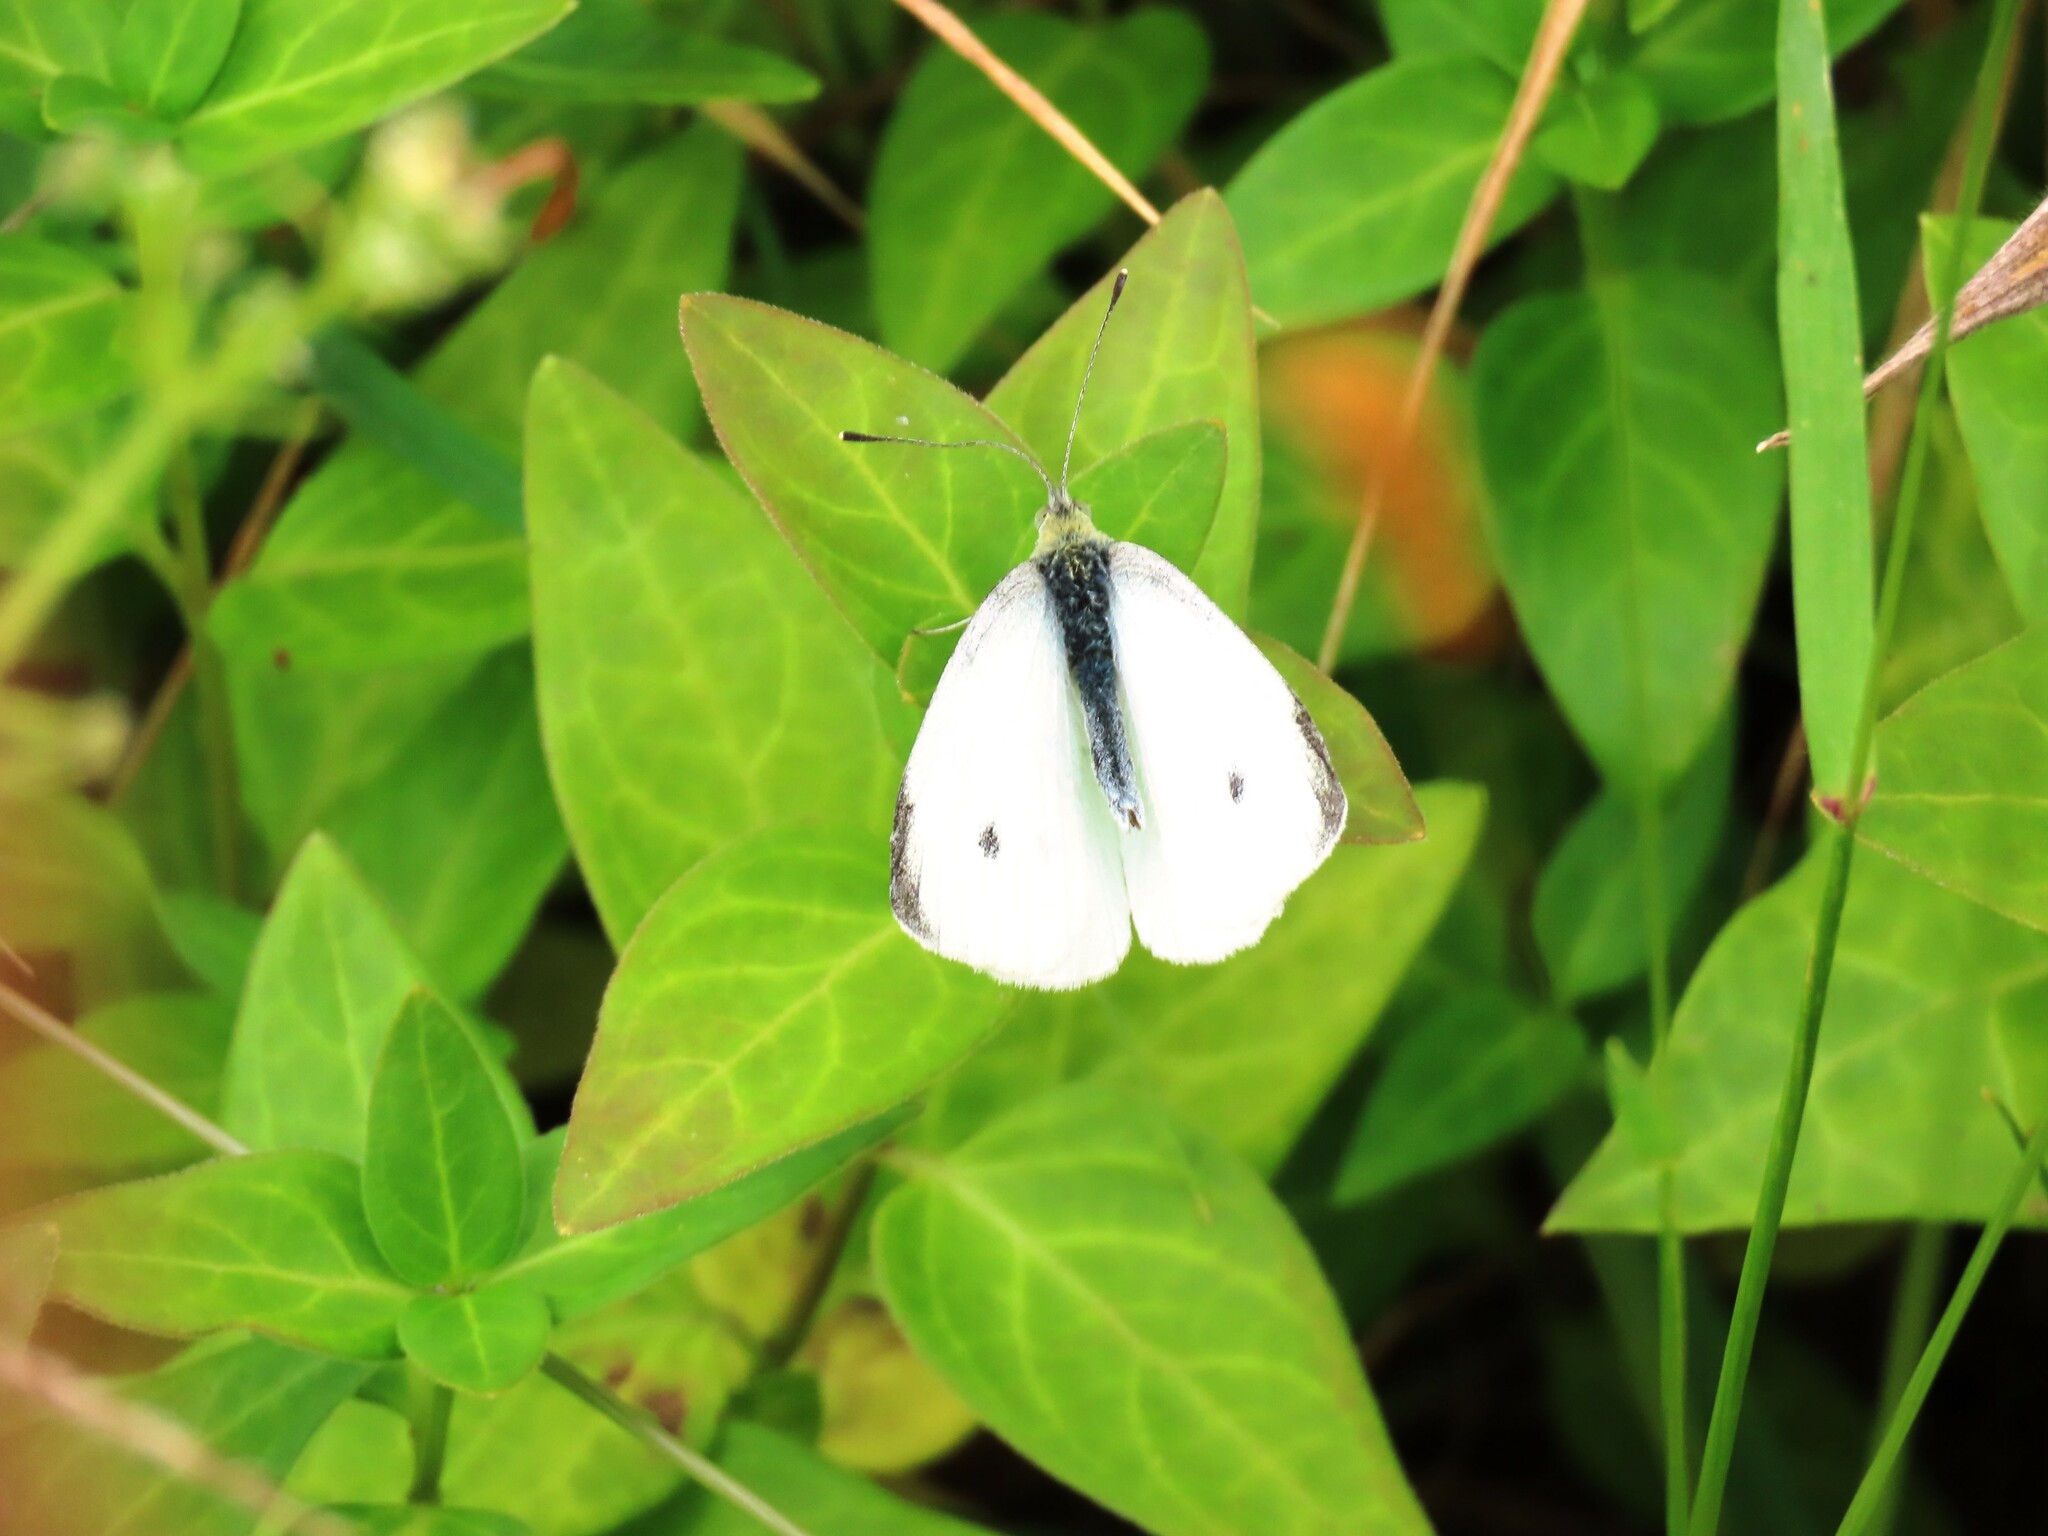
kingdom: Animalia
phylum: Arthropoda
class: Insecta
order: Lepidoptera
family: Pieridae
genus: Pieris
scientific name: Pieris rapae
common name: Small white
